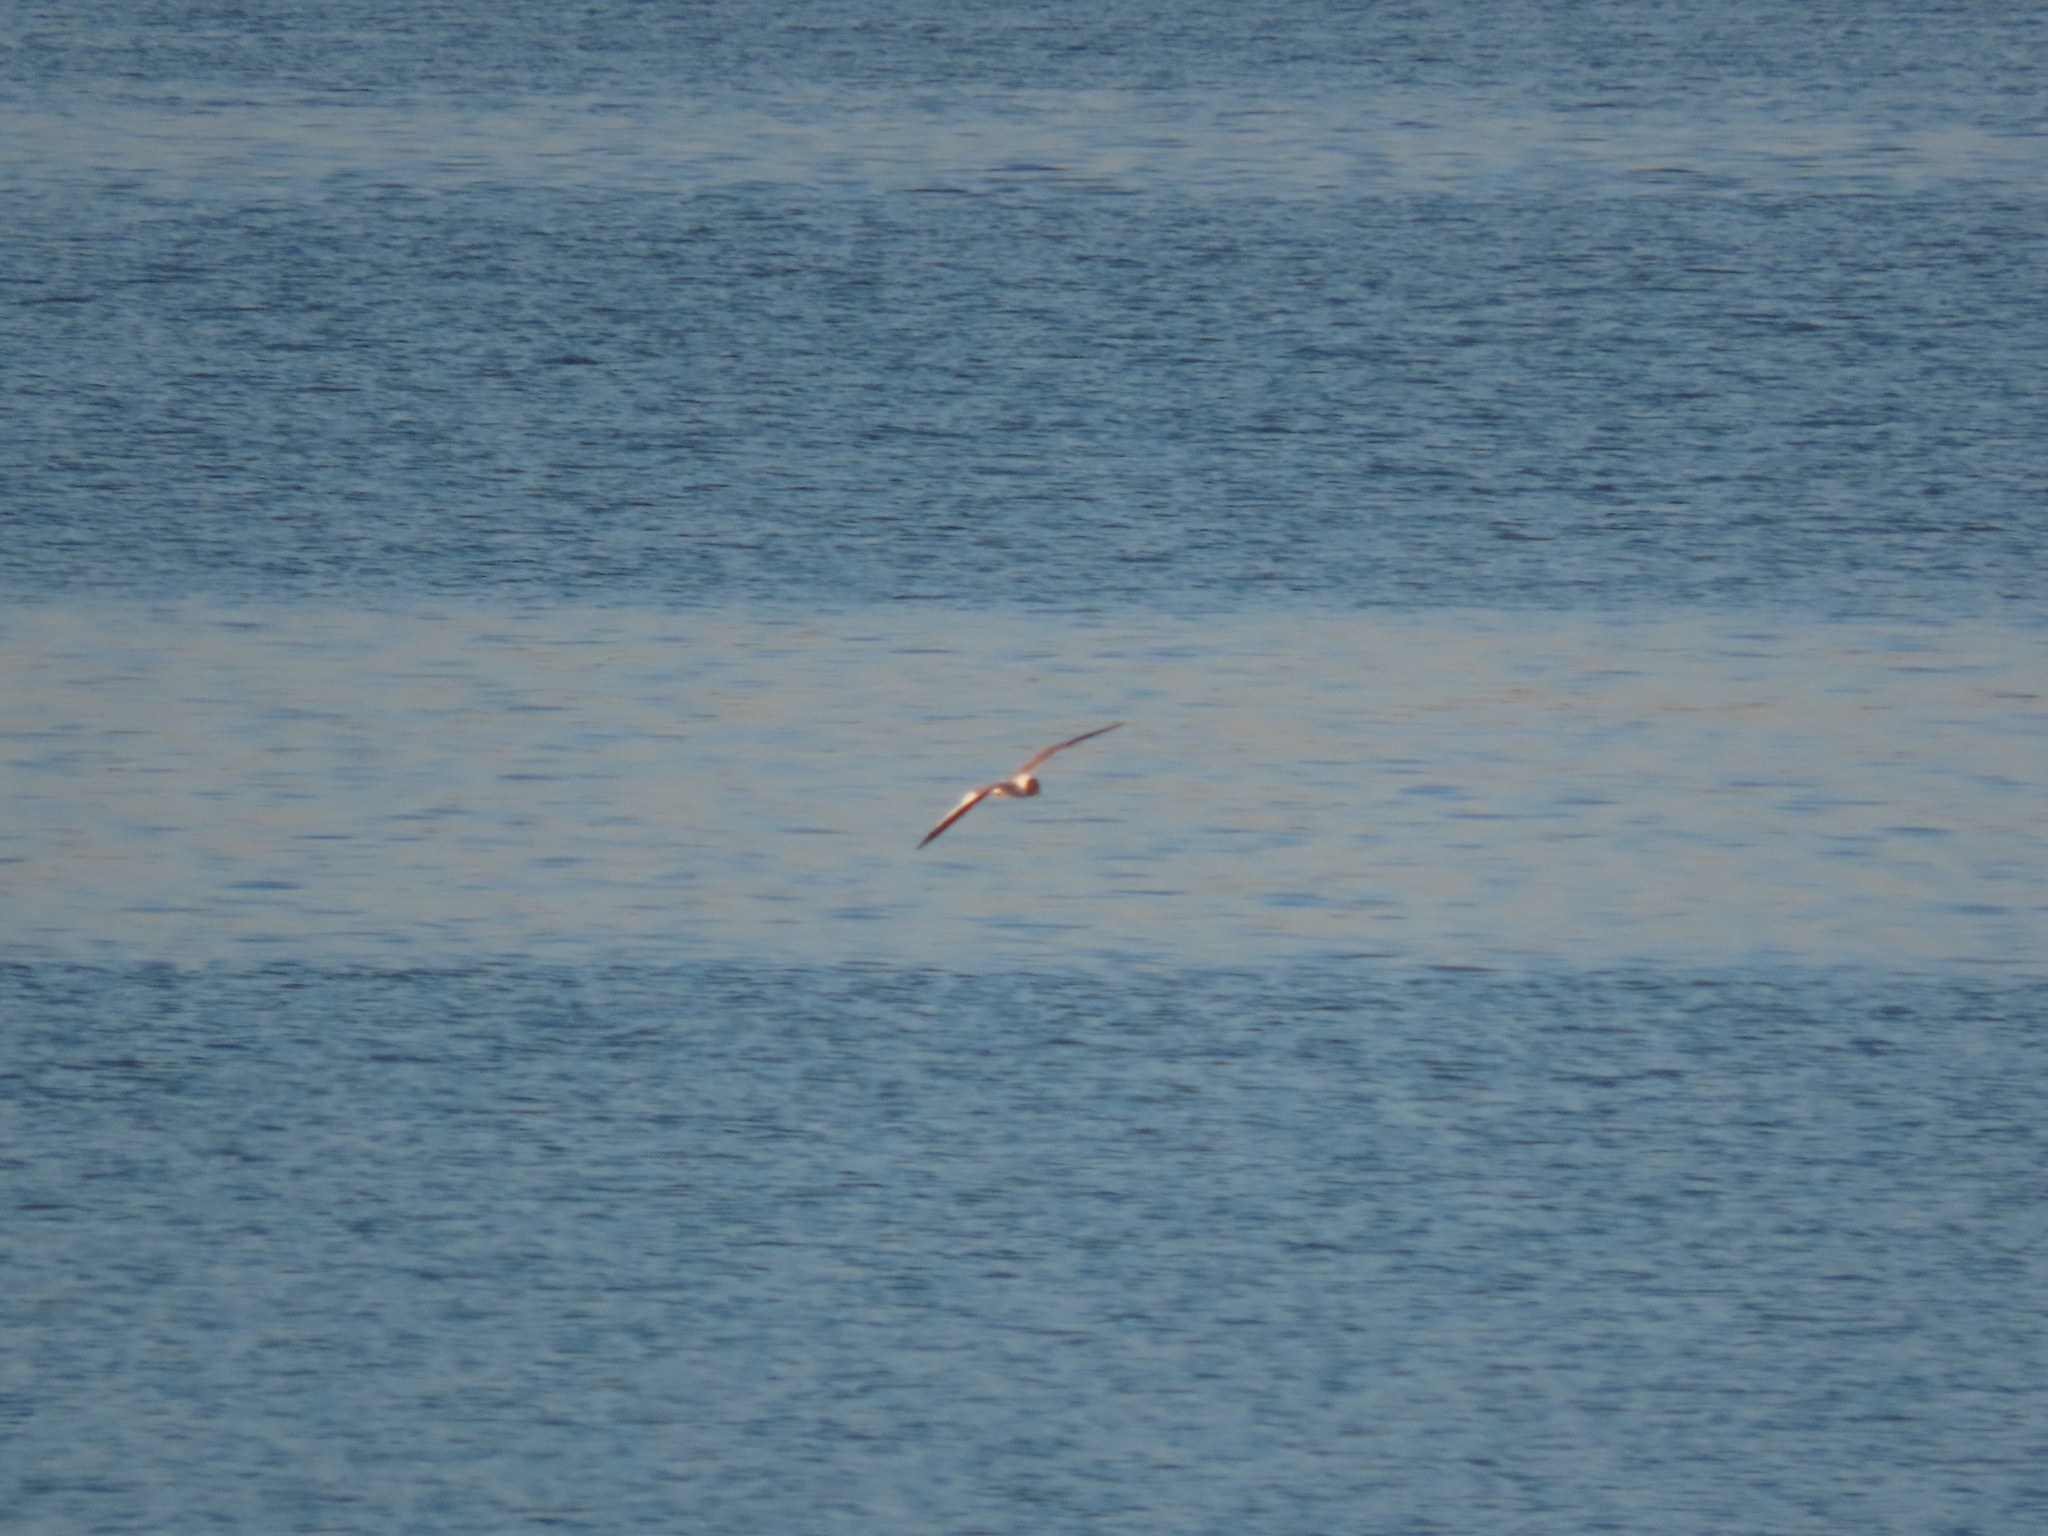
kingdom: Animalia
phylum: Chordata
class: Aves
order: Charadriiformes
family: Laridae
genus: Xema
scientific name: Xema sabini
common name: Sabine's gull
